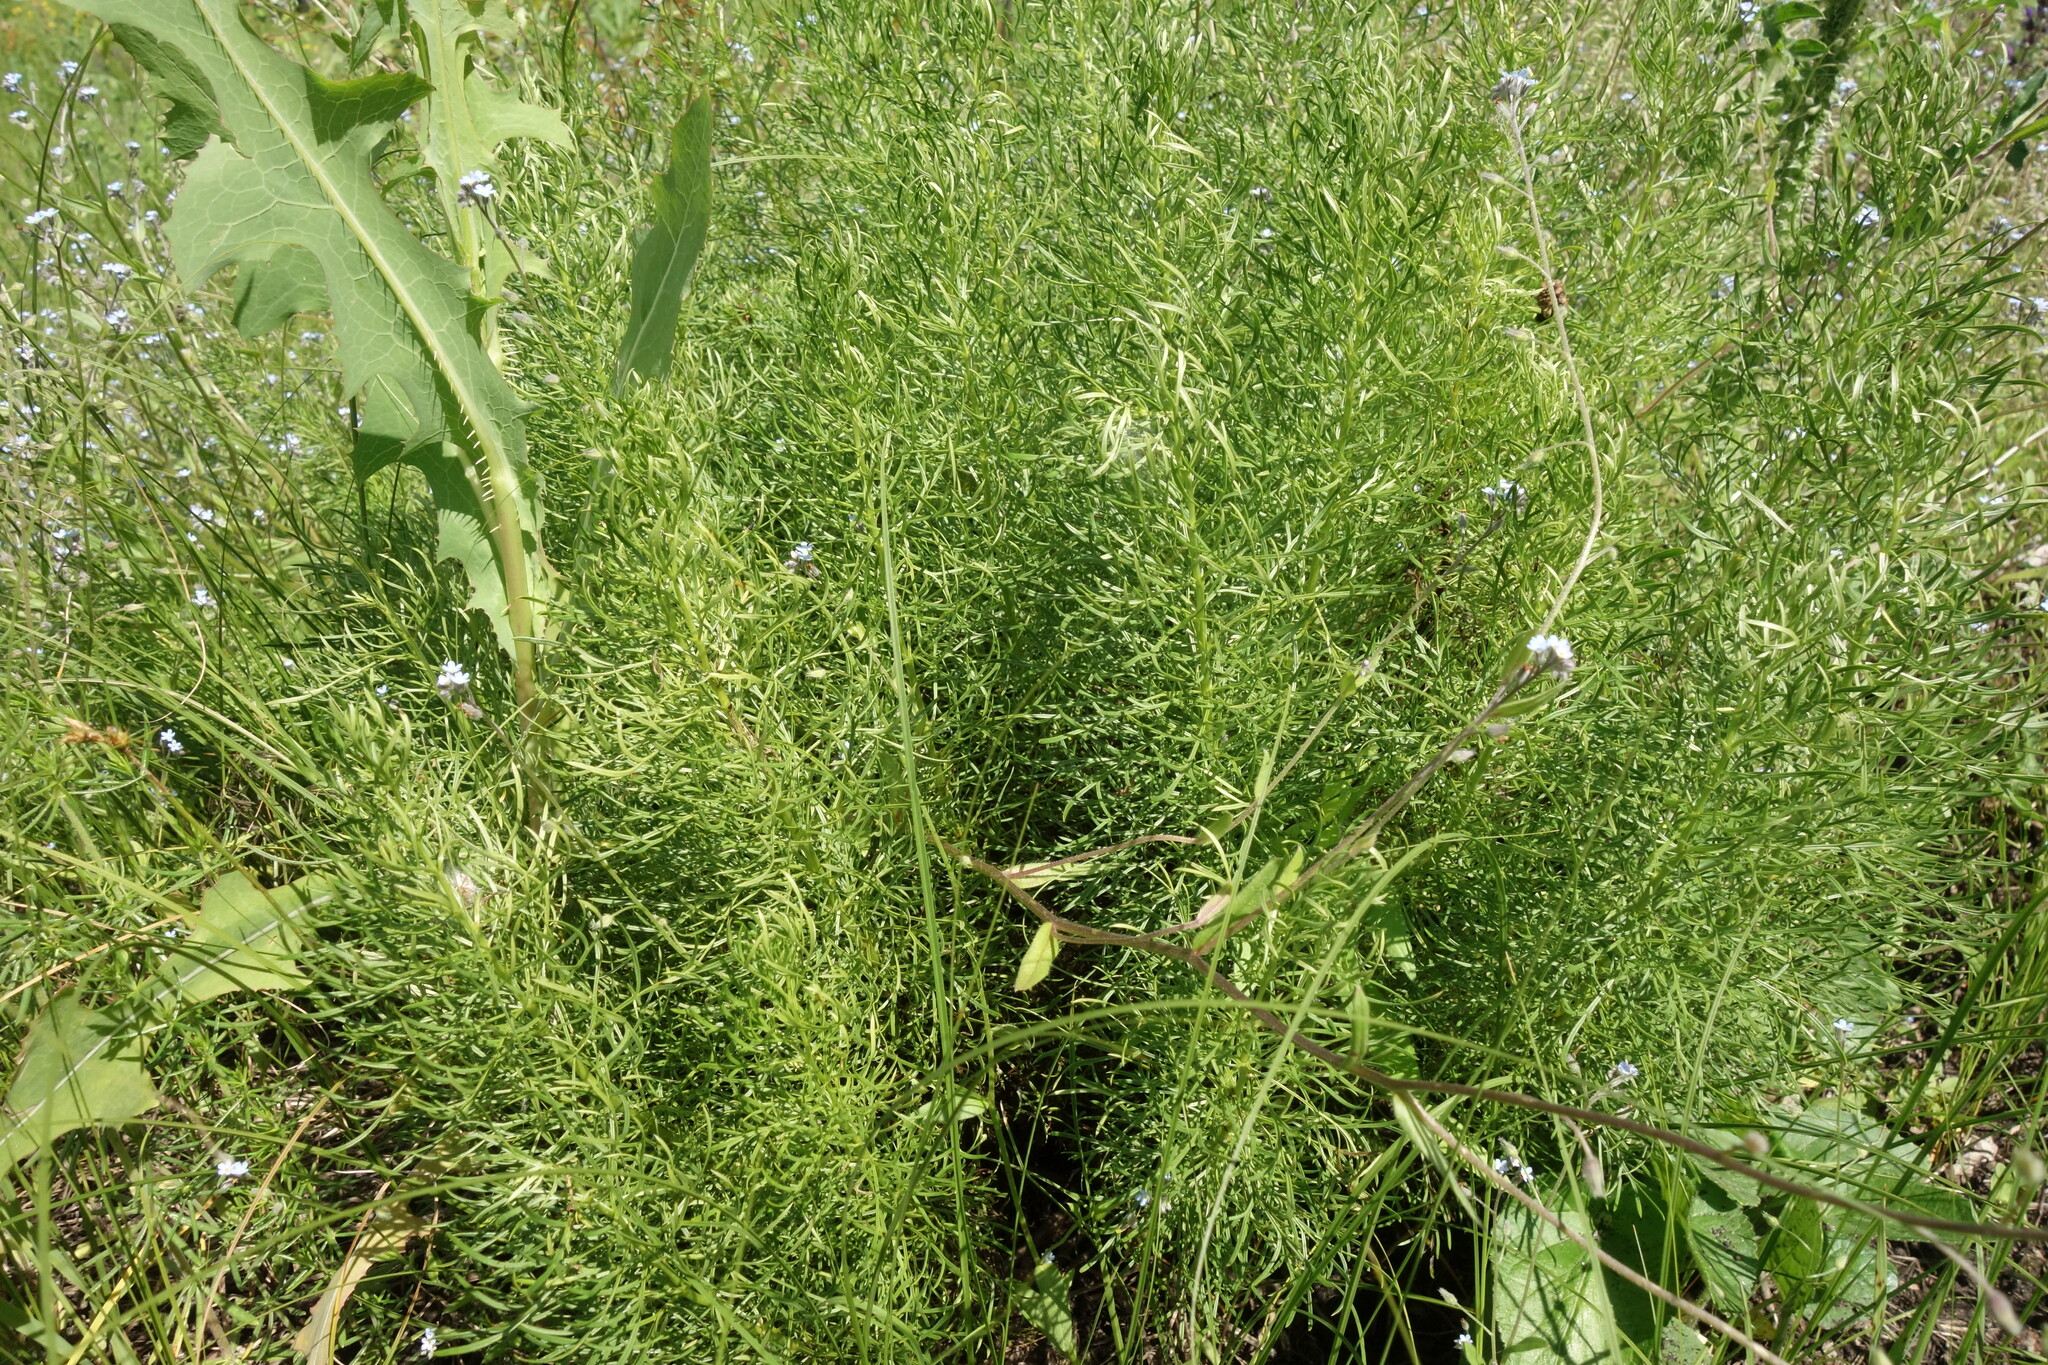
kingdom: Plantae
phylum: Tracheophyta
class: Magnoliopsida
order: Ranunculales
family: Ranunculaceae
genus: Adonis
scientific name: Adonis vernalis
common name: Yellow pheasants-eye
